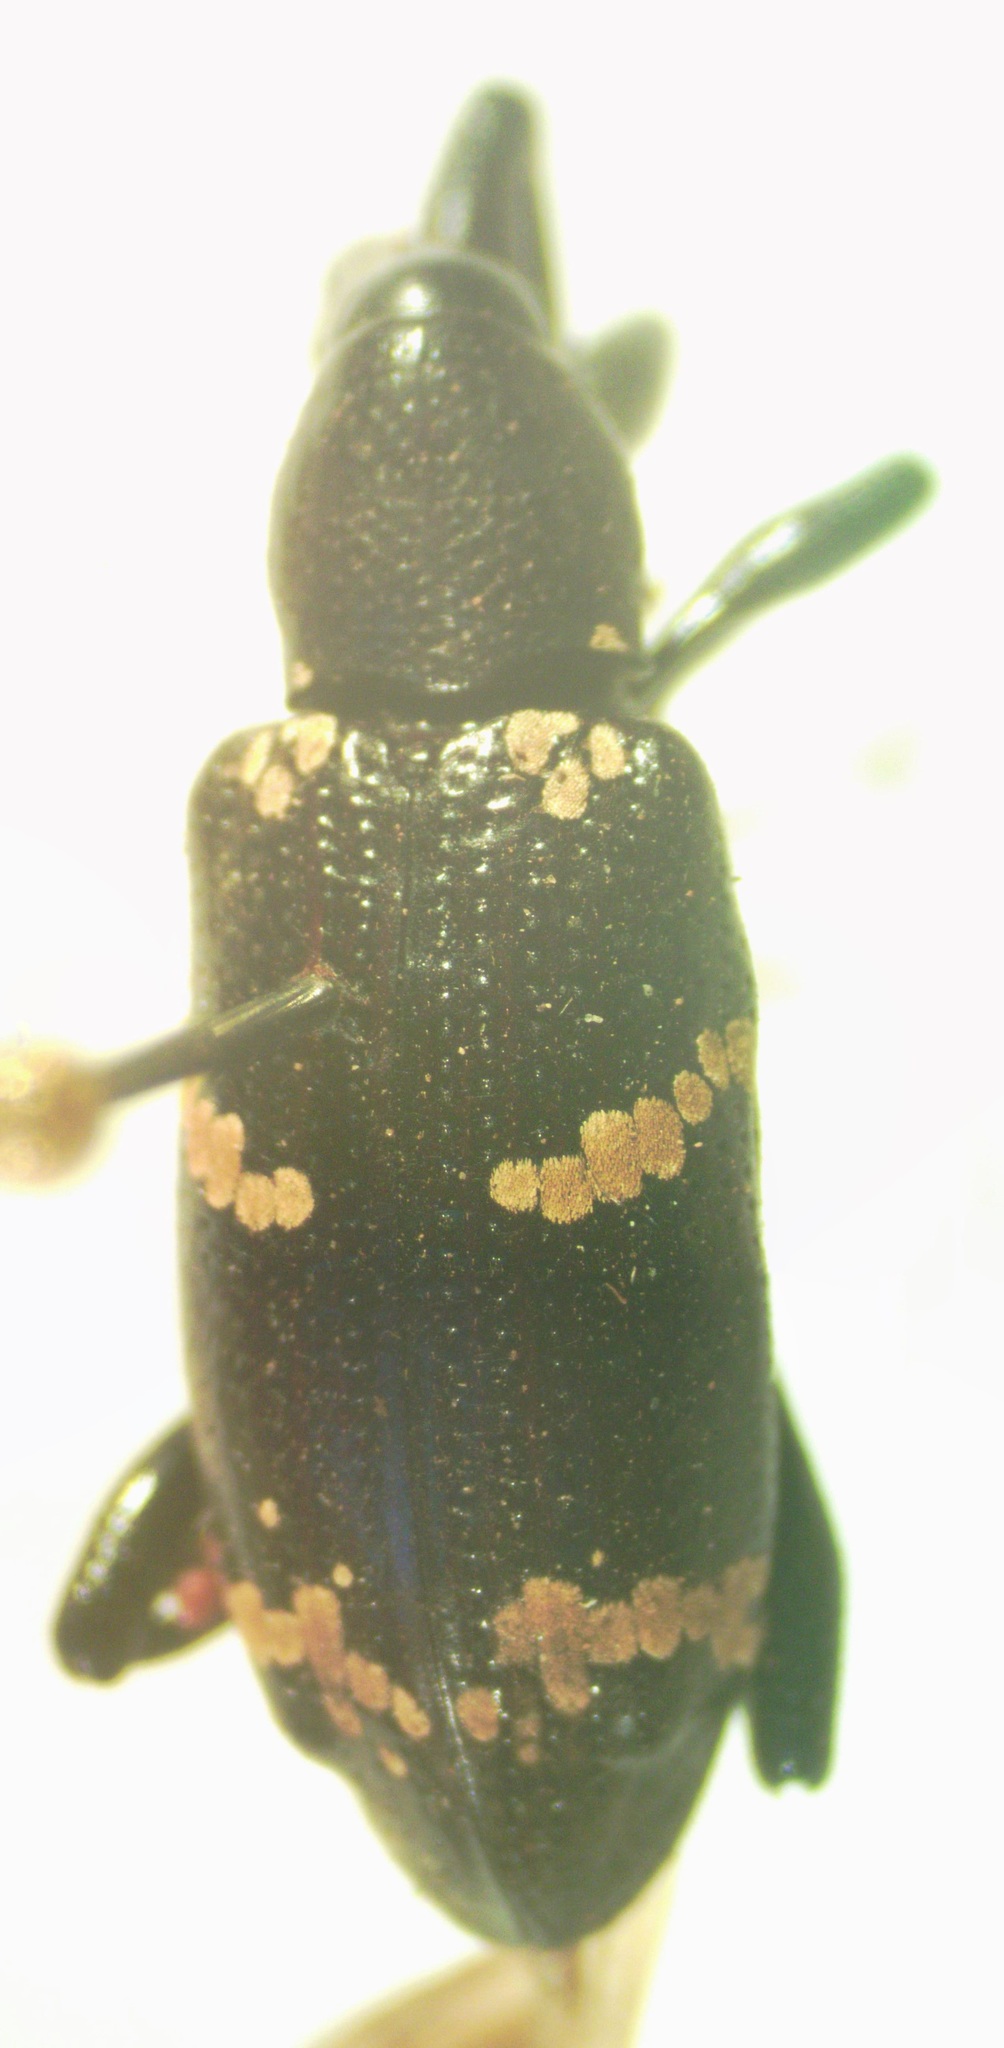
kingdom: Animalia
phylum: Arthropoda
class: Insecta
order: Coleoptera
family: Curculionidae
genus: Heilipus
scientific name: Heilipus
